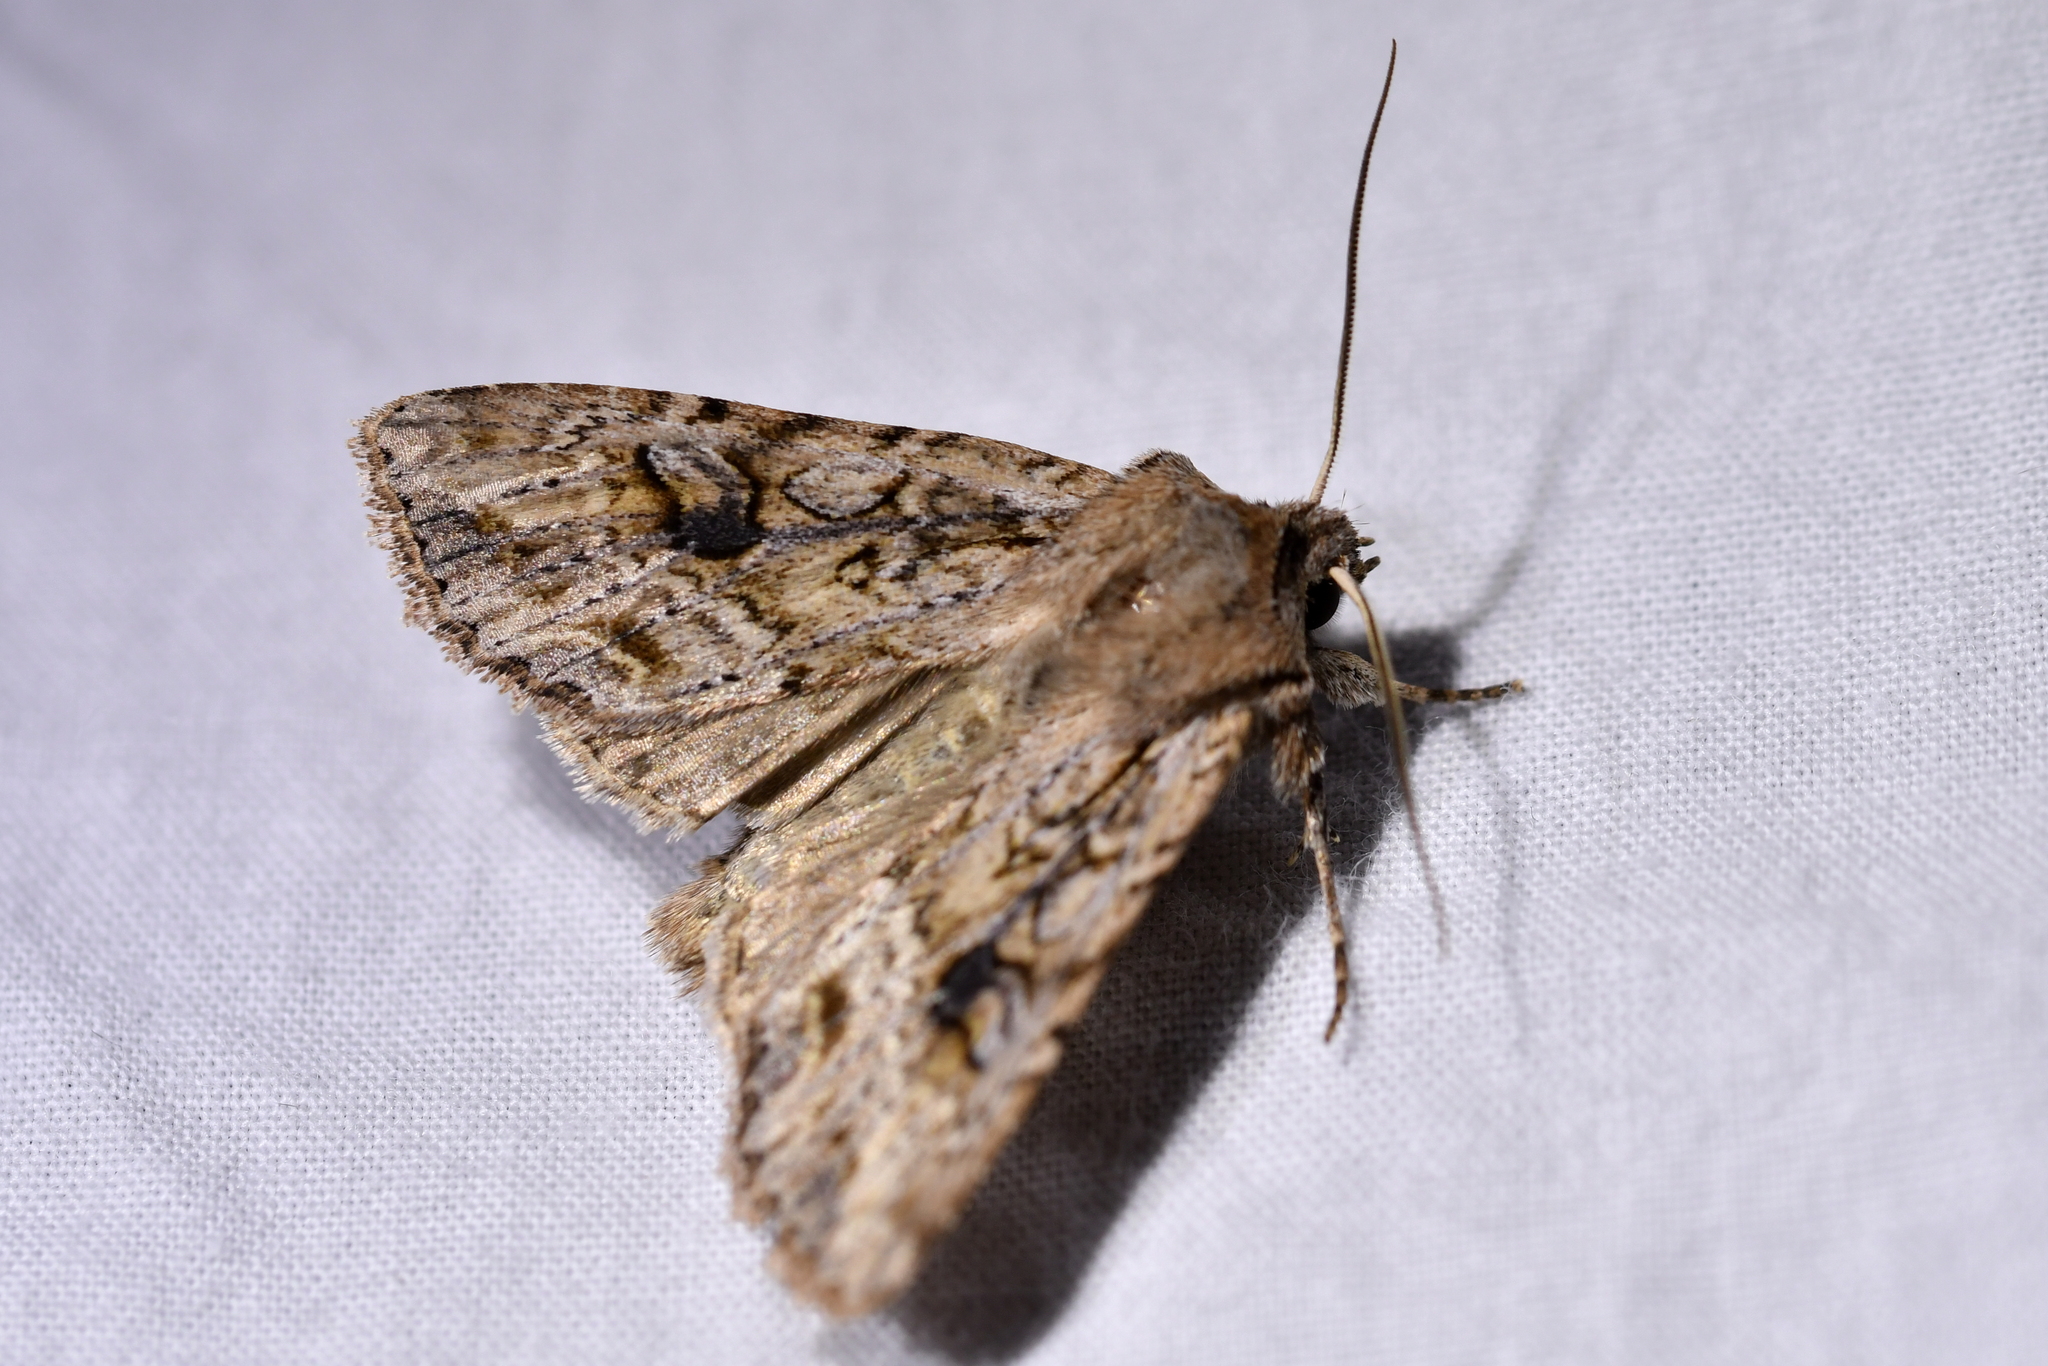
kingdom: Animalia
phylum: Arthropoda
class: Insecta
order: Lepidoptera
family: Noctuidae
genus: Ichneutica
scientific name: Ichneutica lindsayorum
